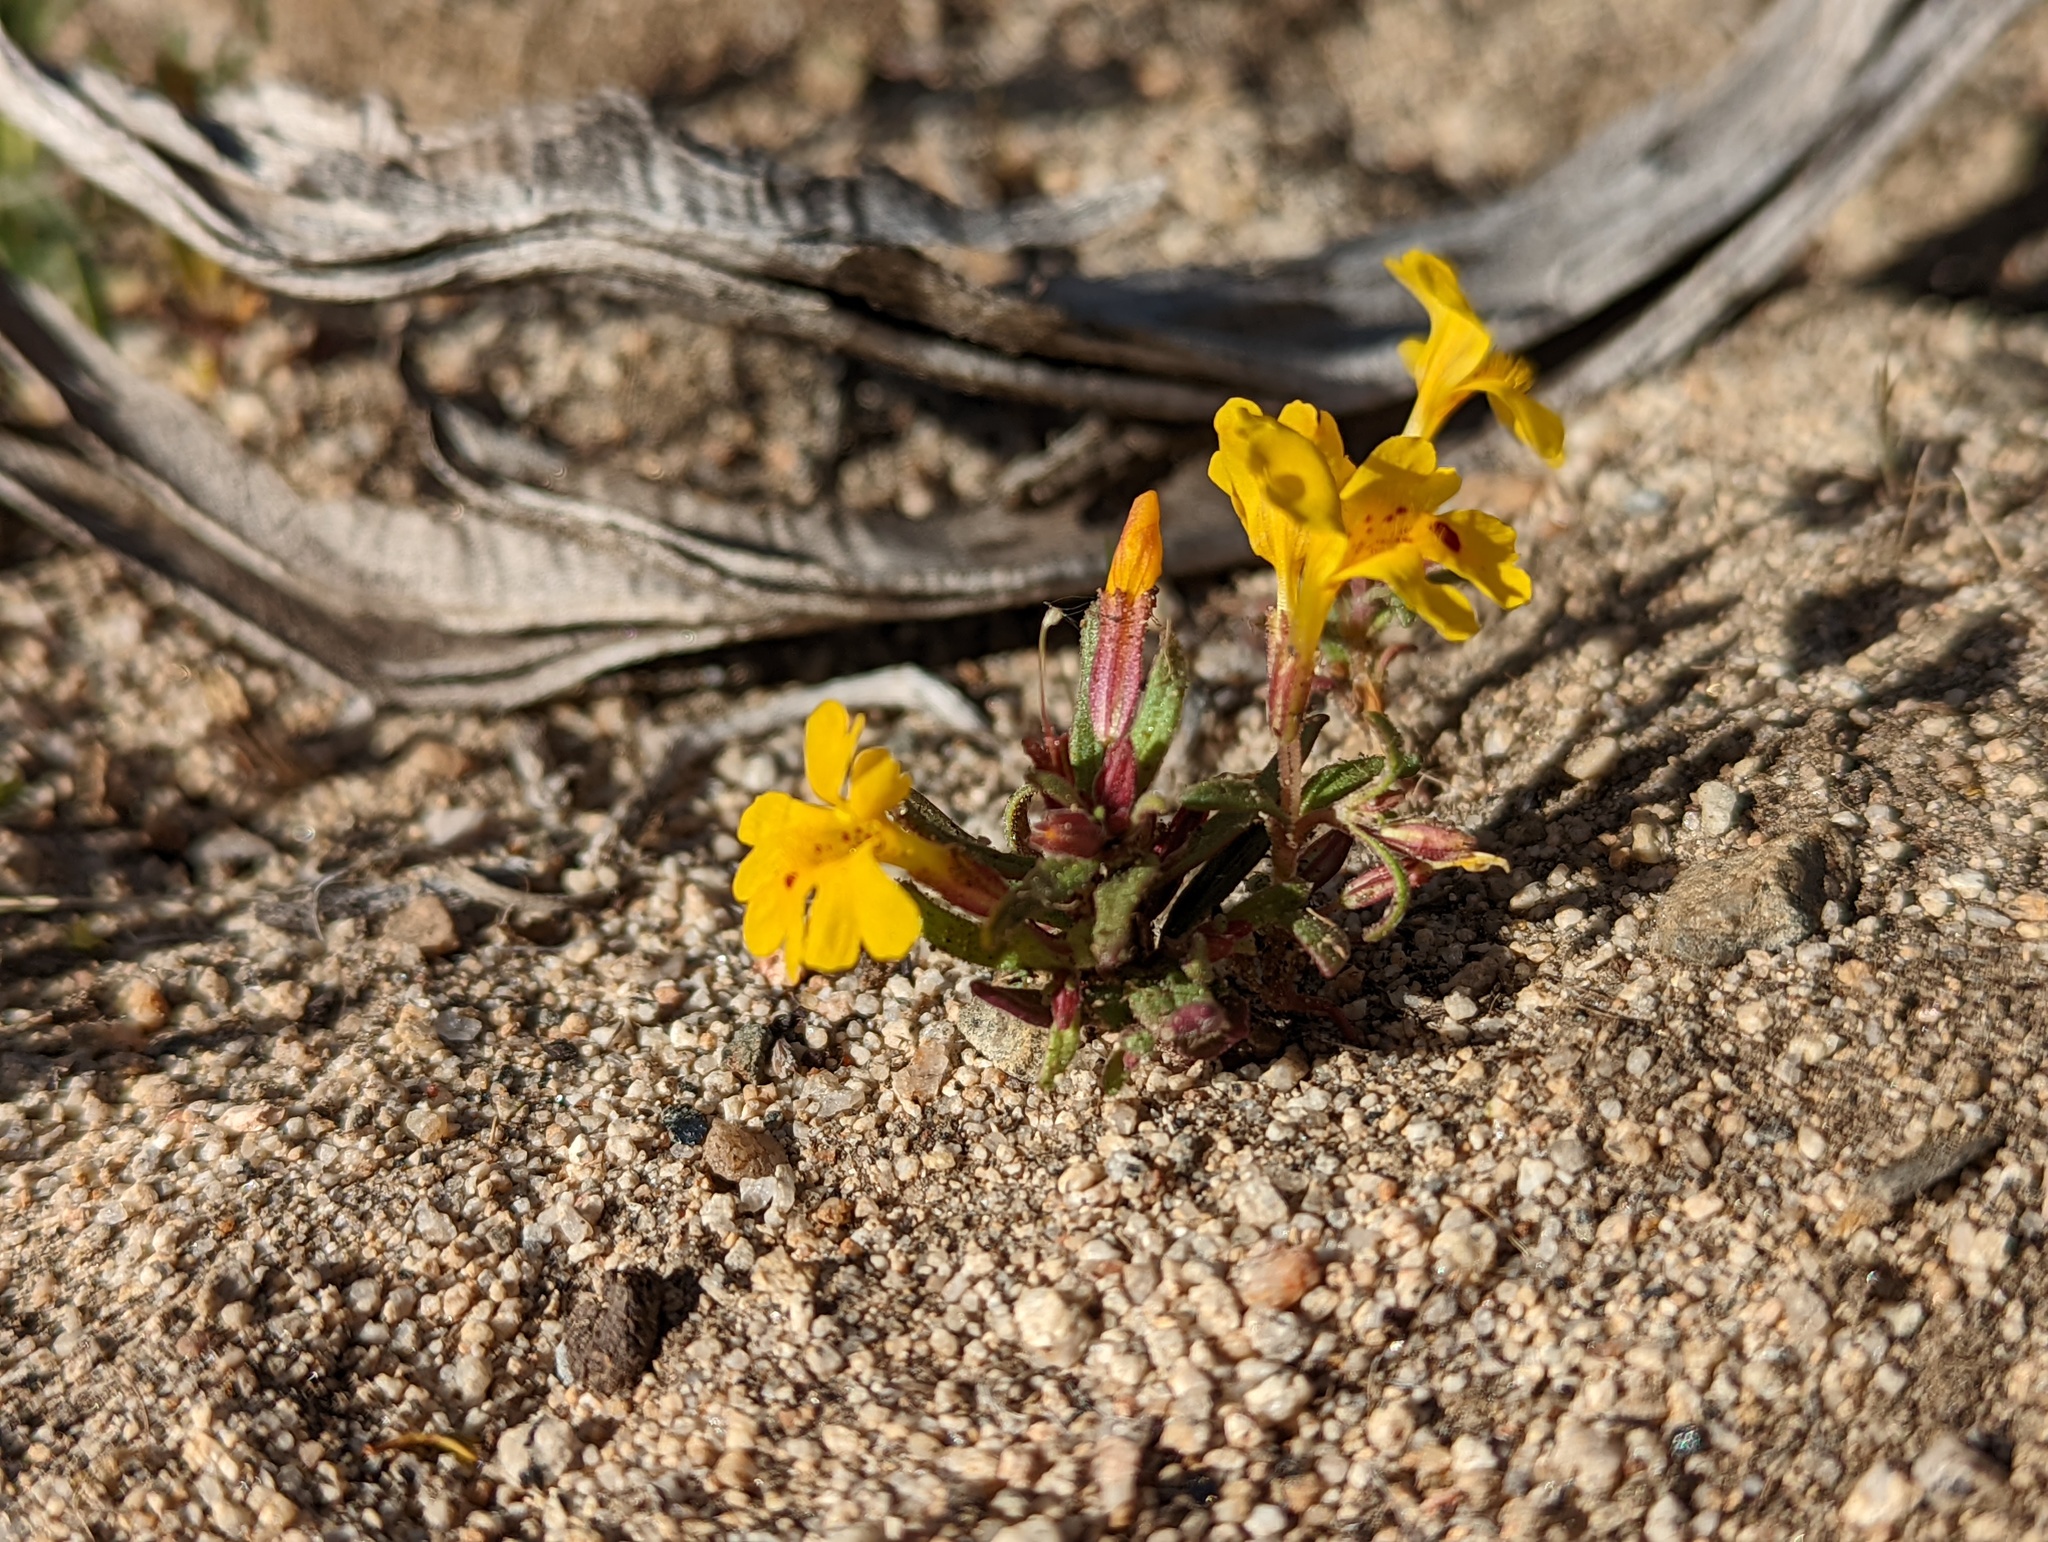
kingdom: Plantae
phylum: Tracheophyta
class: Magnoliopsida
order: Lamiales
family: Phrymaceae
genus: Erythranthe
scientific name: Erythranthe carsonensis
